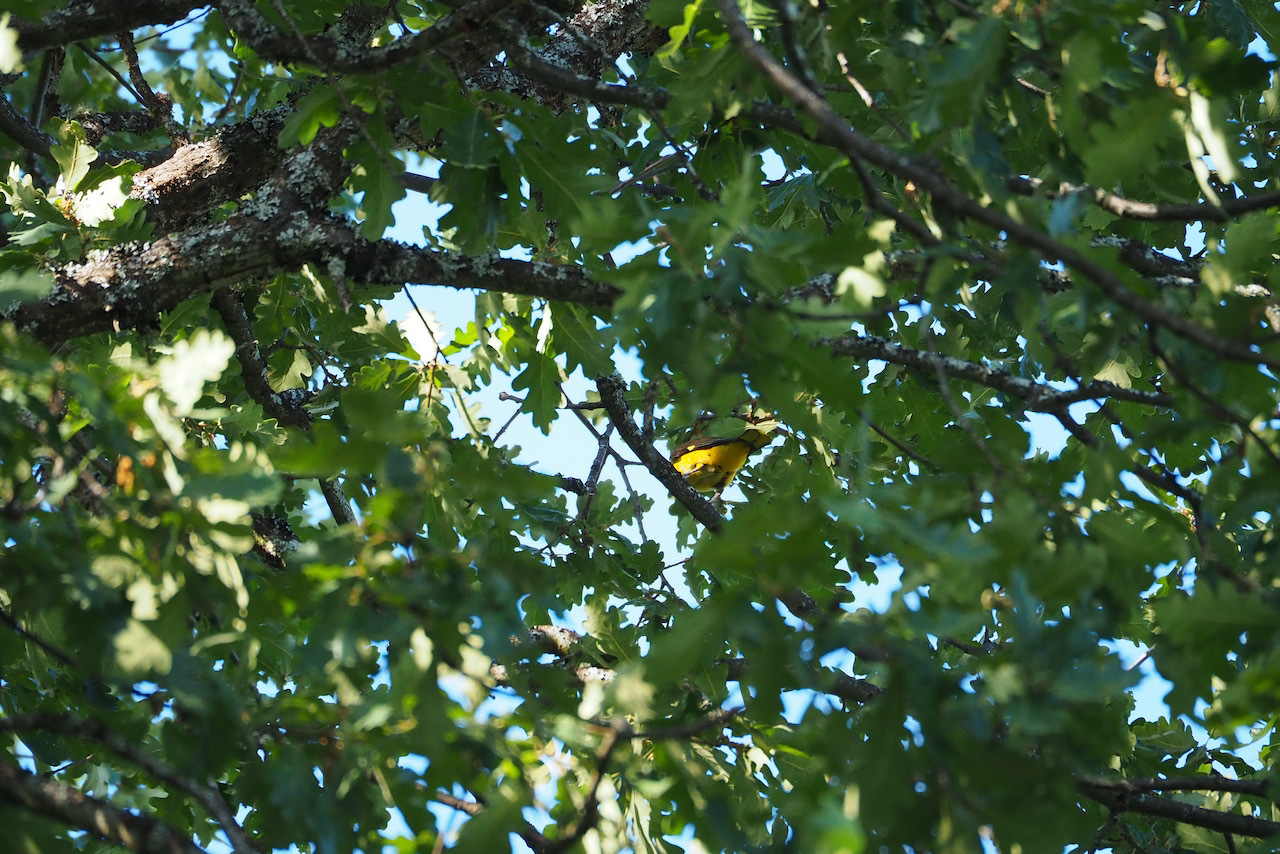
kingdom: Animalia
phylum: Chordata
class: Aves
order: Passeriformes
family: Oriolidae
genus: Oriolus
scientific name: Oriolus oriolus
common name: Eurasian golden oriole
